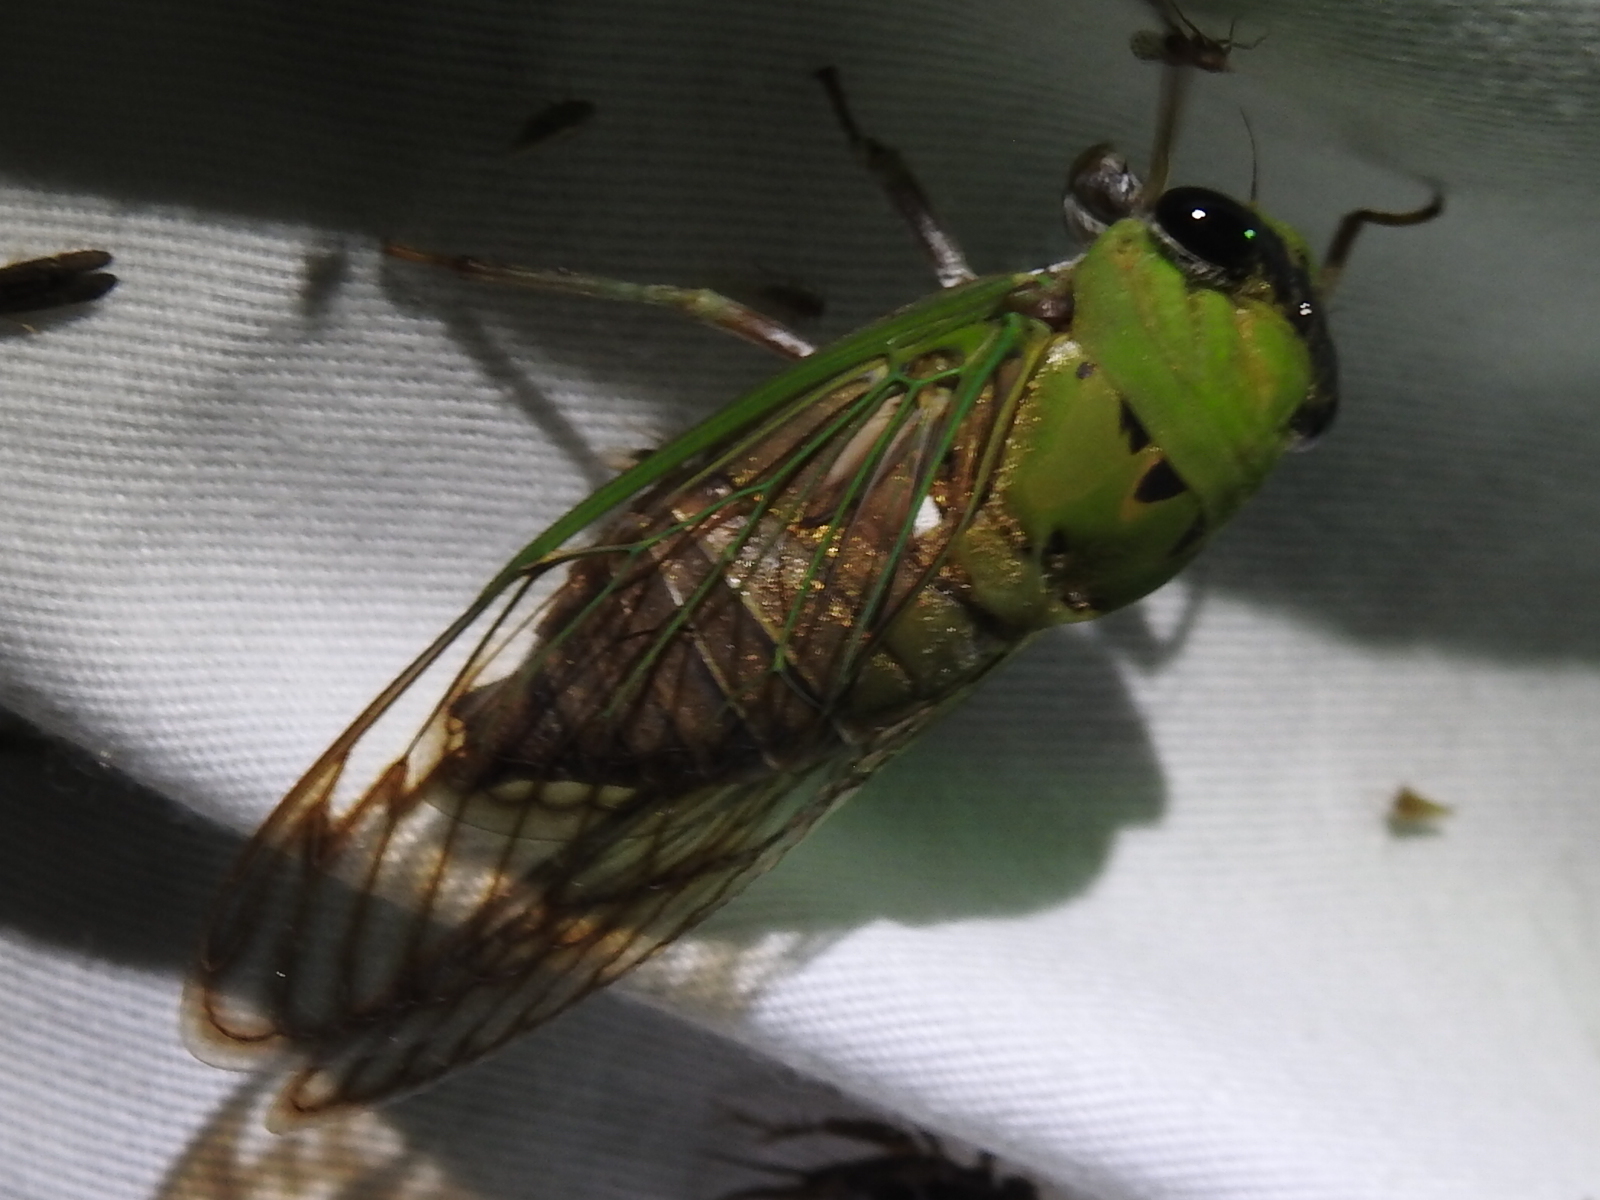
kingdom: Animalia
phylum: Arthropoda
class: Insecta
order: Hemiptera
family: Cicadidae
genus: Neotibicen
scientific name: Neotibicen superbus
